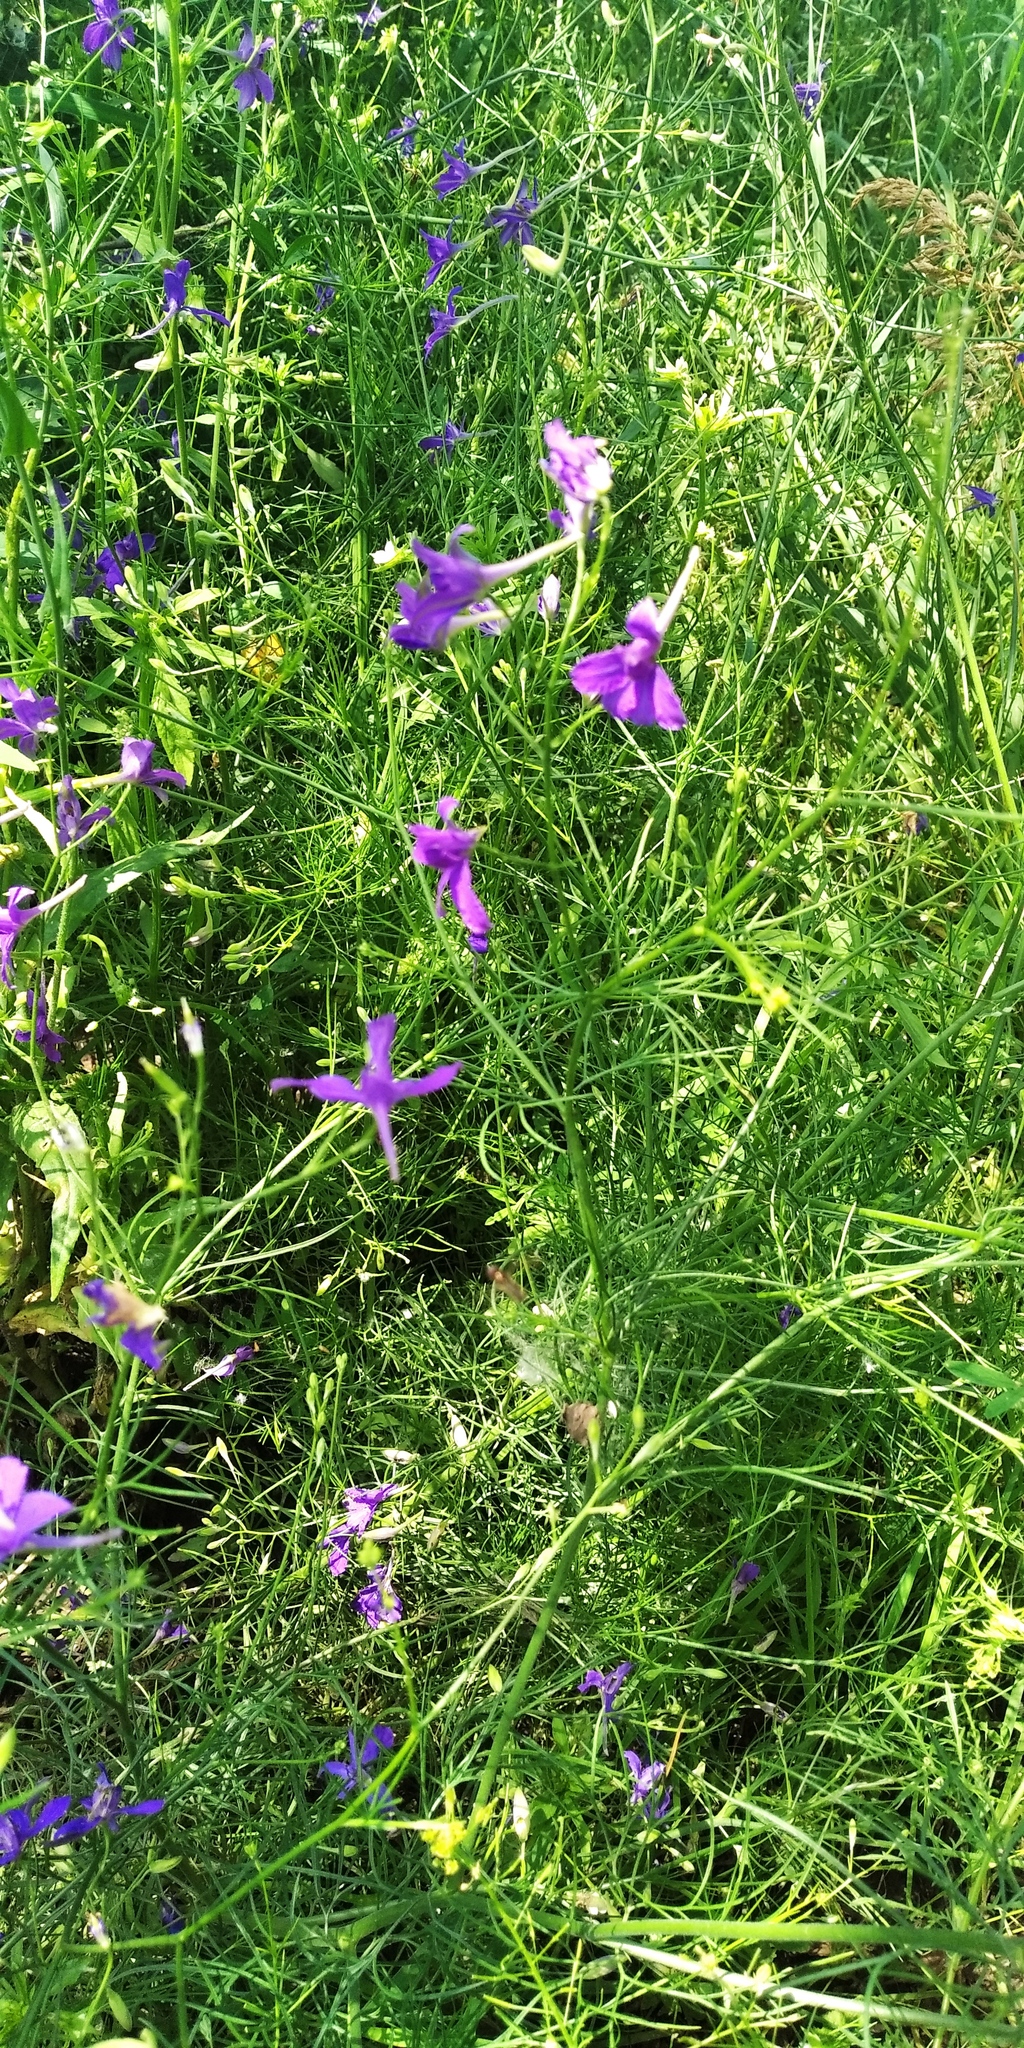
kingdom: Plantae
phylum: Tracheophyta
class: Magnoliopsida
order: Ranunculales
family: Ranunculaceae
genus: Delphinium
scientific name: Delphinium consolida
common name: Branching larkspur
